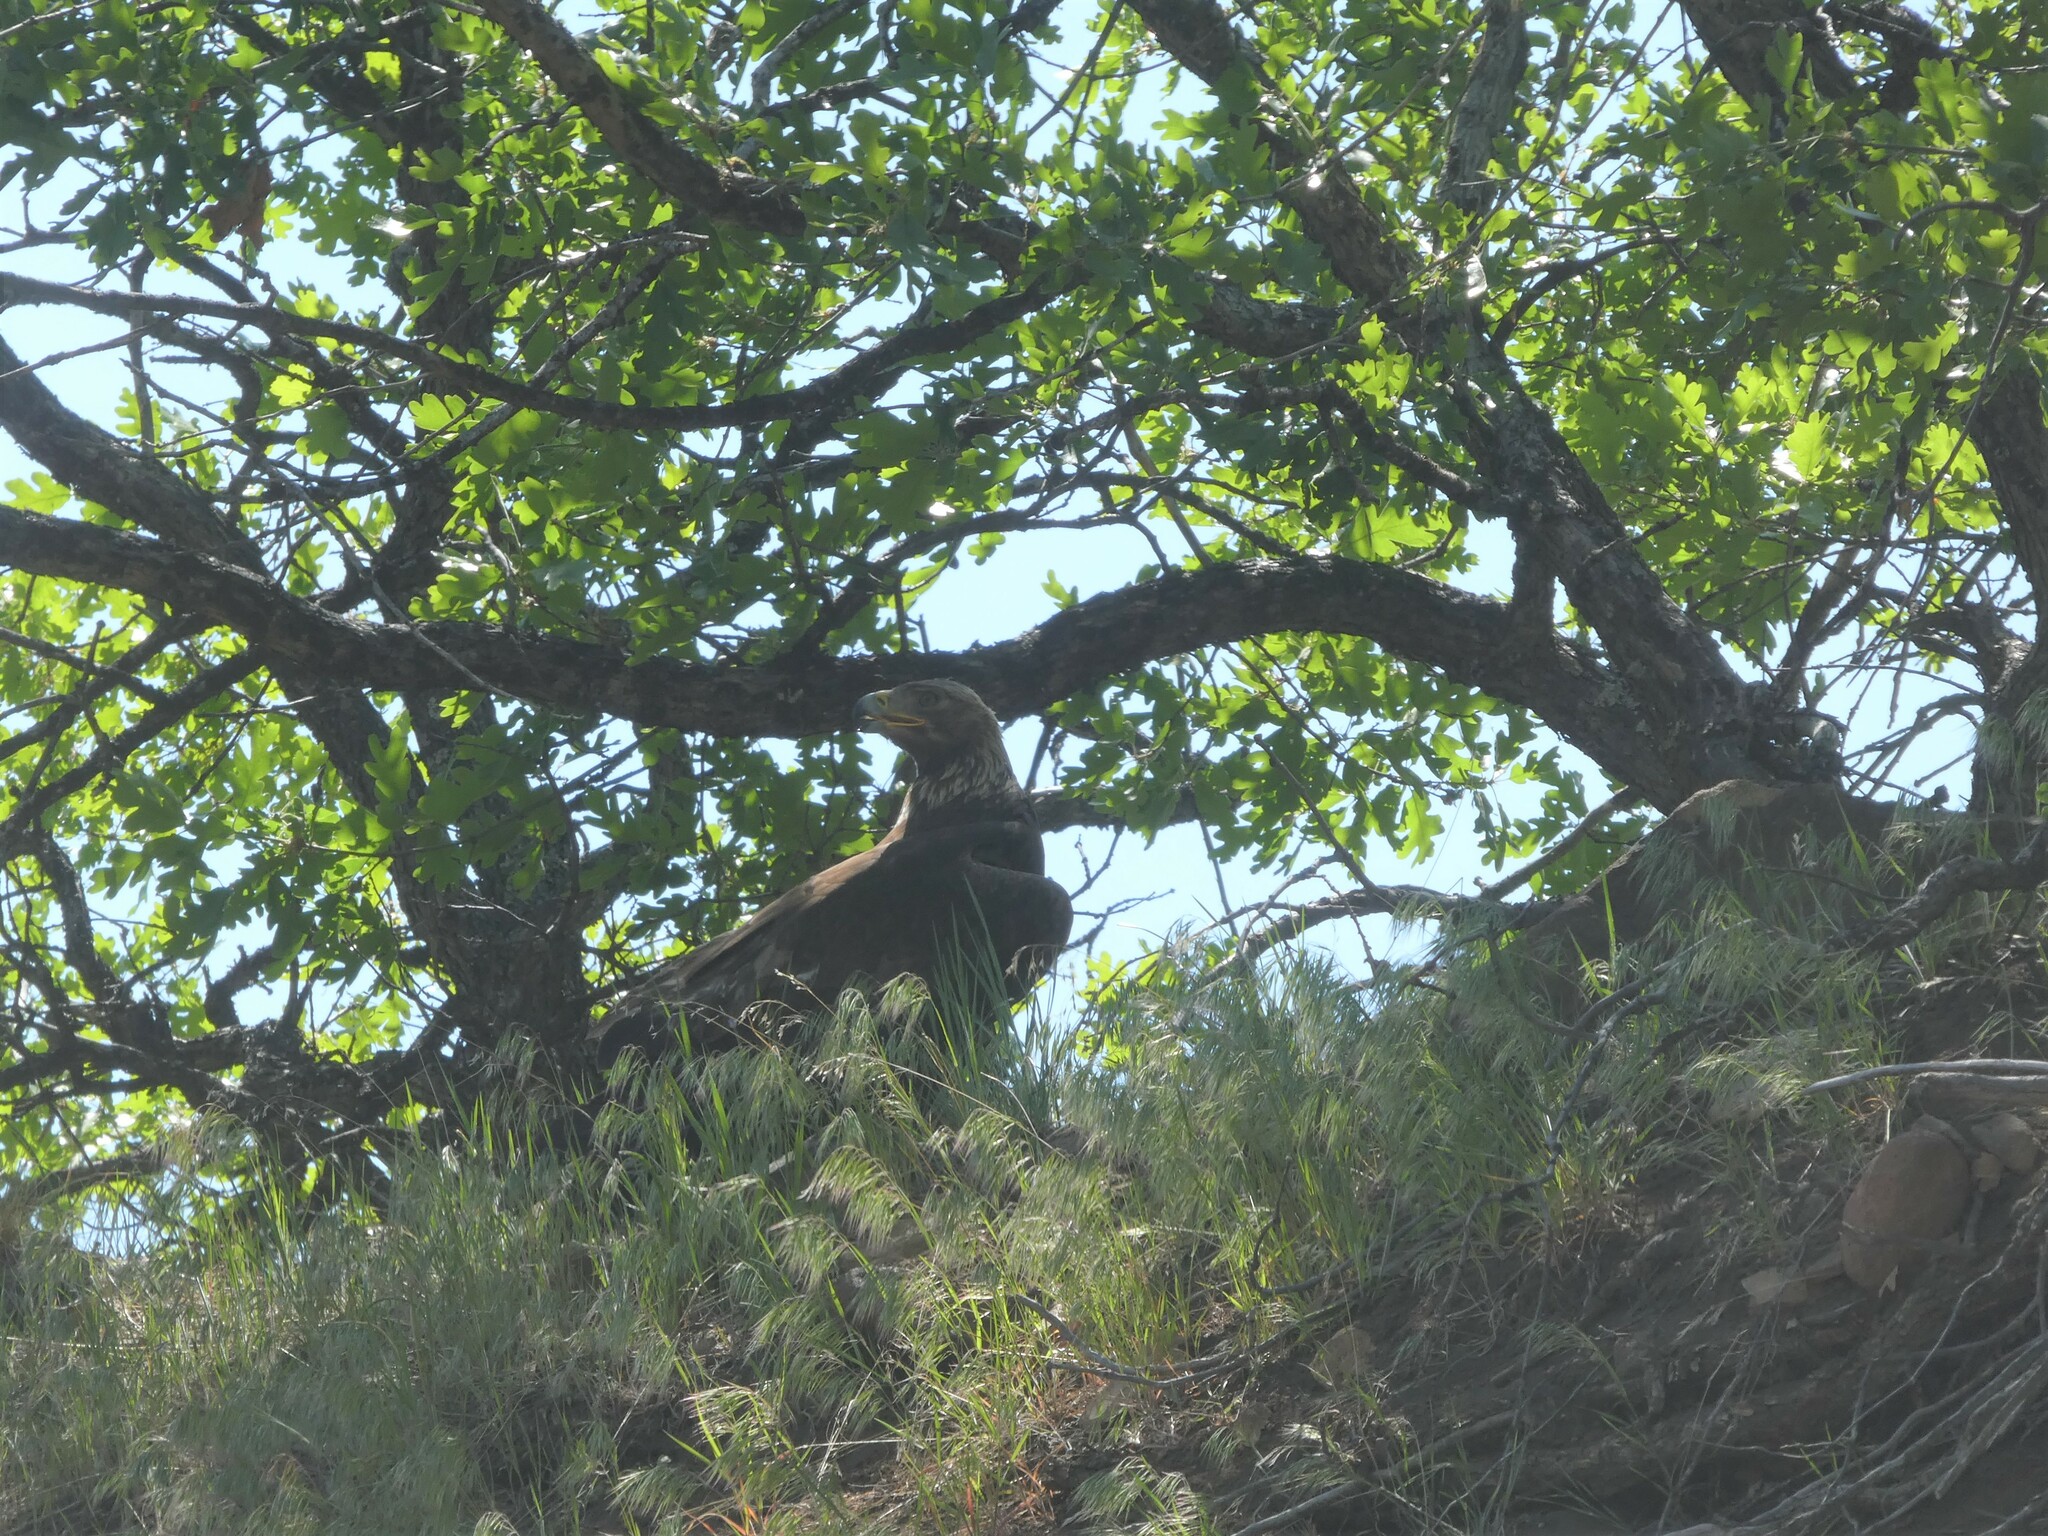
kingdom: Animalia
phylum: Chordata
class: Aves
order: Accipitriformes
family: Accipitridae
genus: Aquila
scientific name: Aquila chrysaetos
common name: Golden eagle
